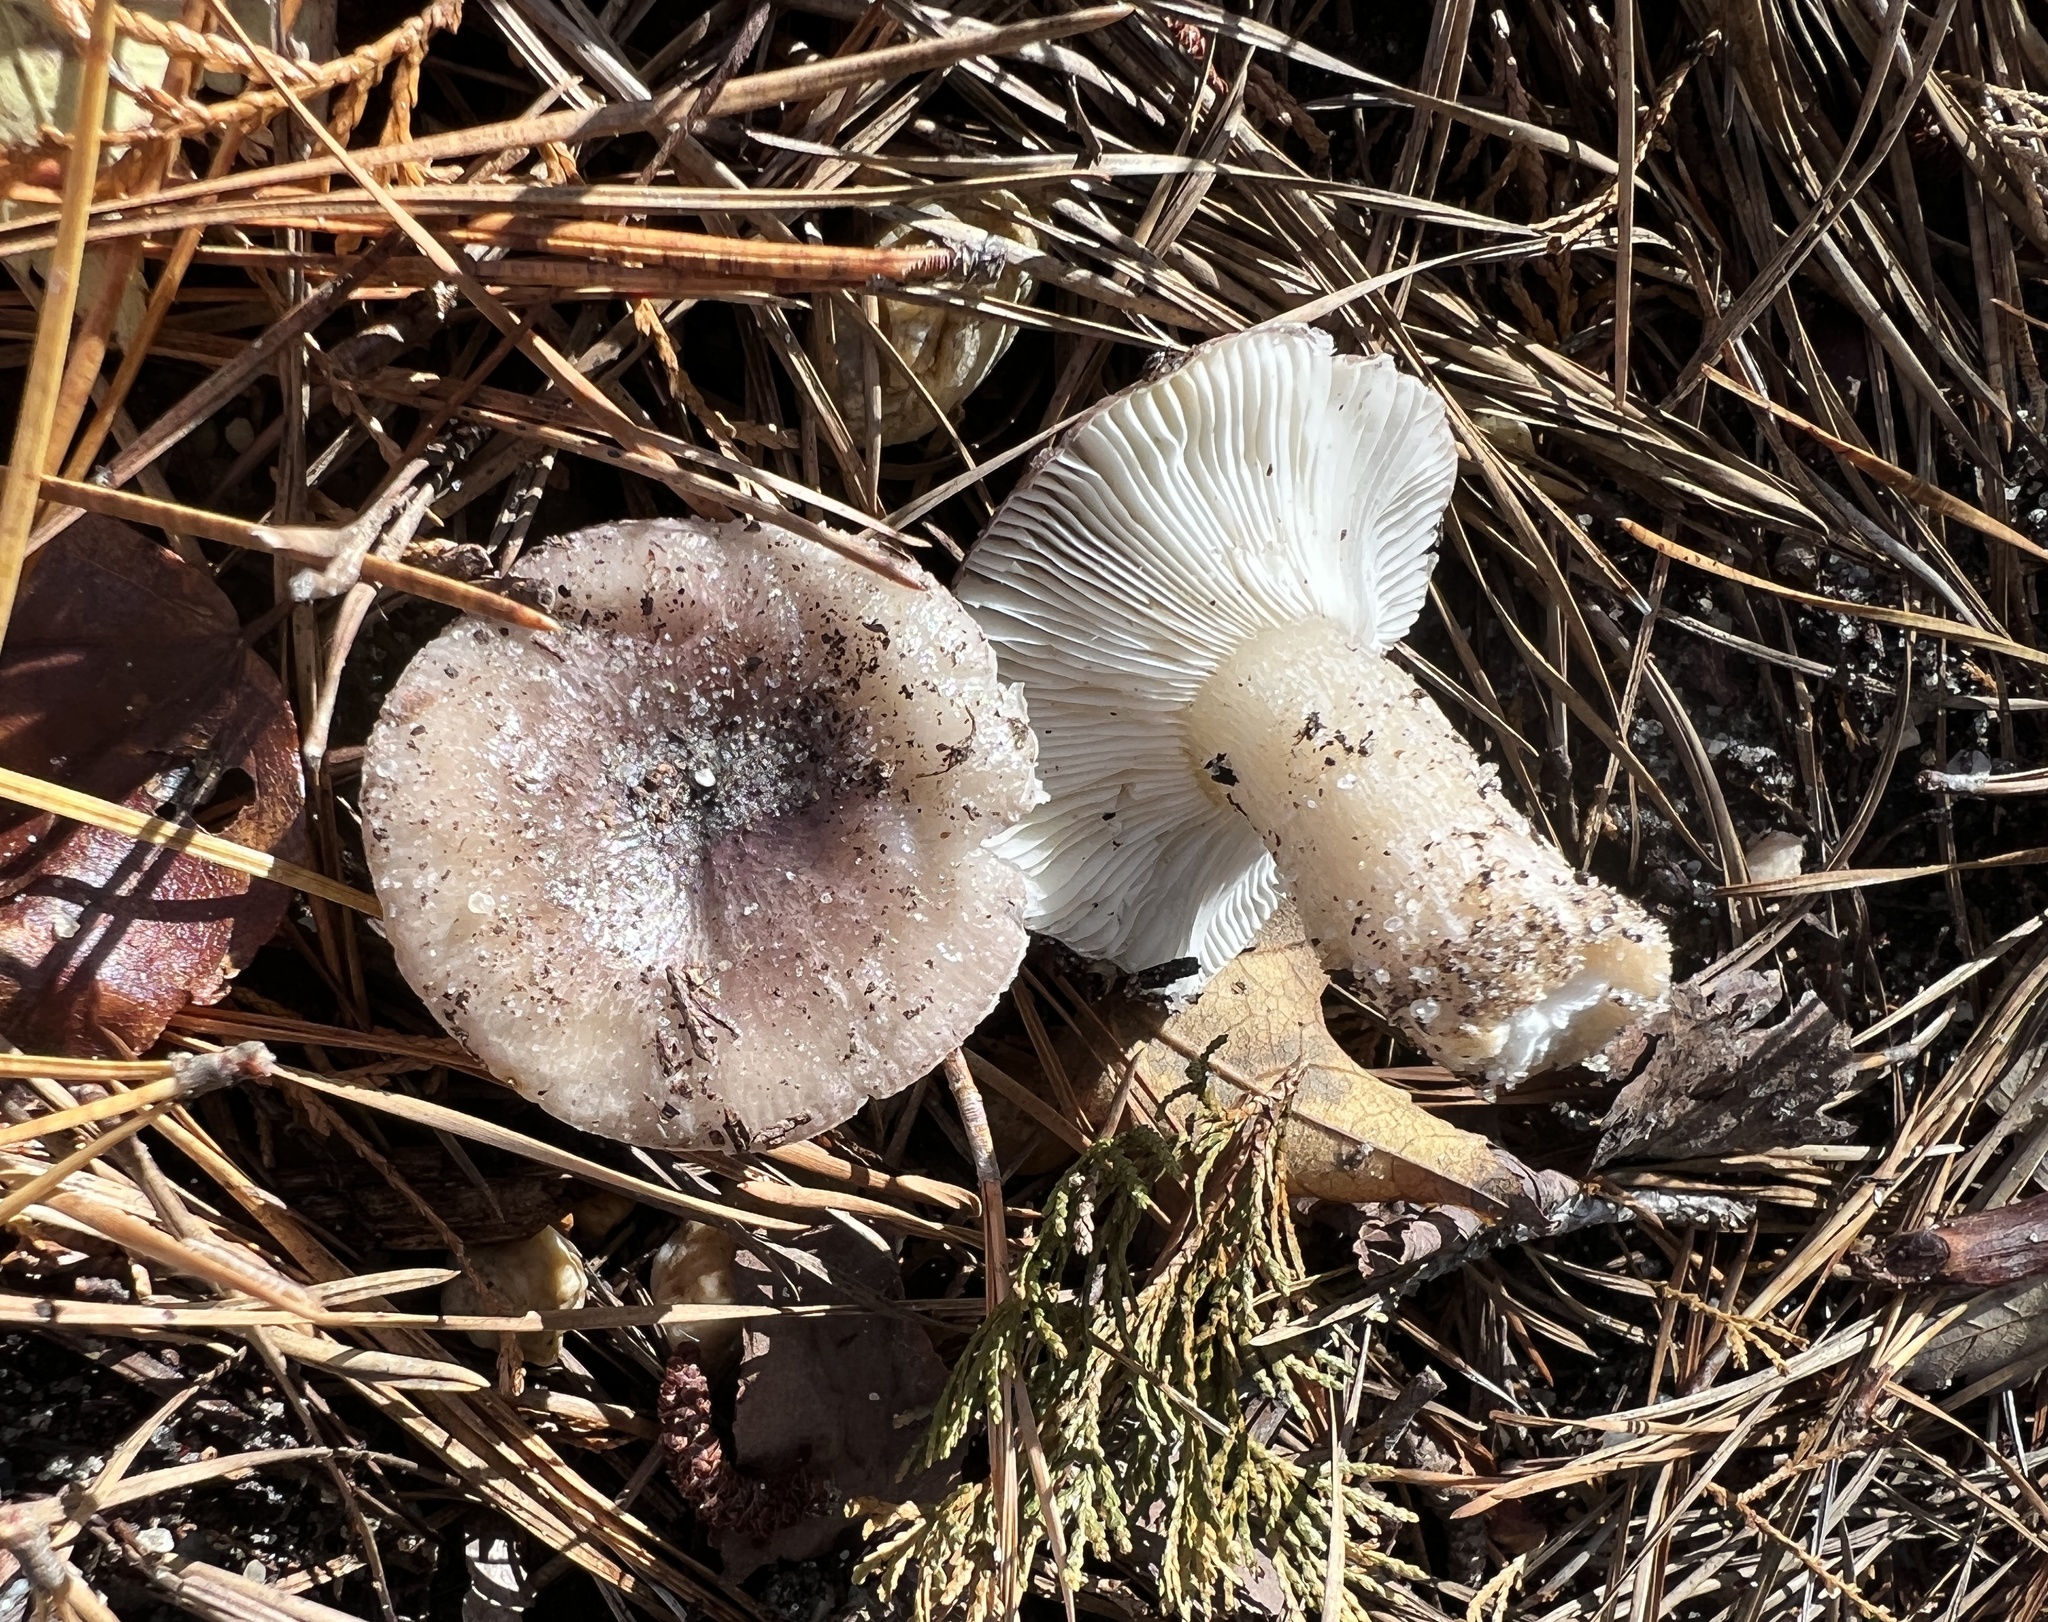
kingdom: Fungi
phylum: Basidiomycota
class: Agaricomycetes
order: Russulales
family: Russulaceae
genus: Russula
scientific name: Russula sericeonitens
